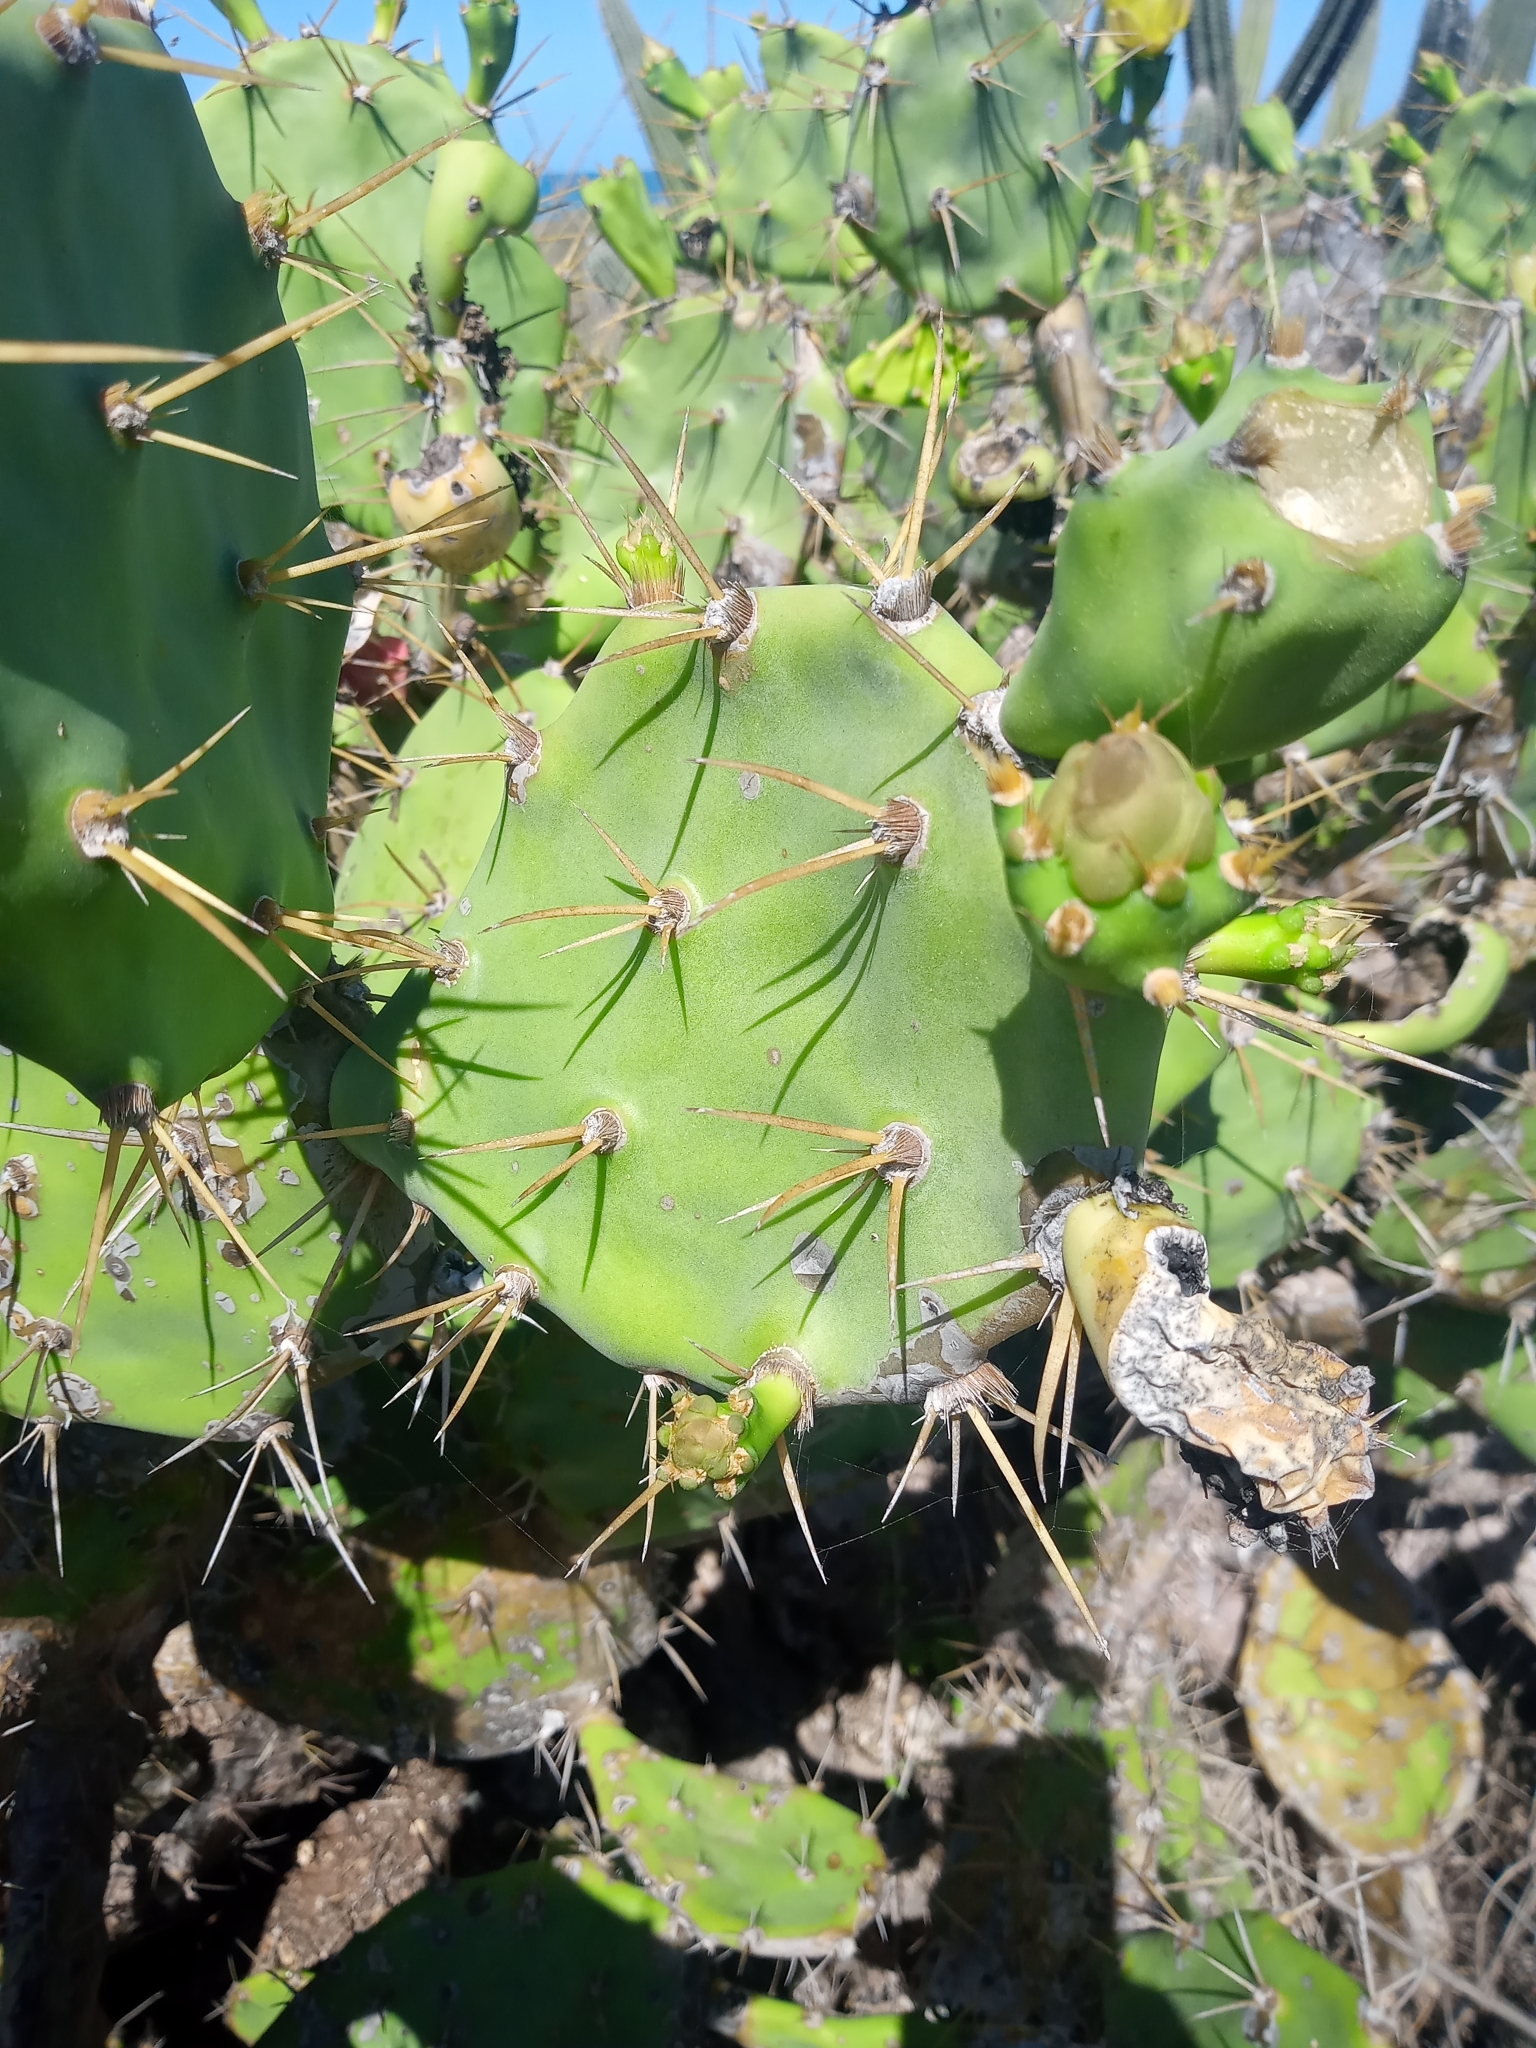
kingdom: Plantae
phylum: Tracheophyta
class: Magnoliopsida
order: Caryophyllales
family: Cactaceae
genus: Opuntia
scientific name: Opuntia stricta
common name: Erect pricklypear
